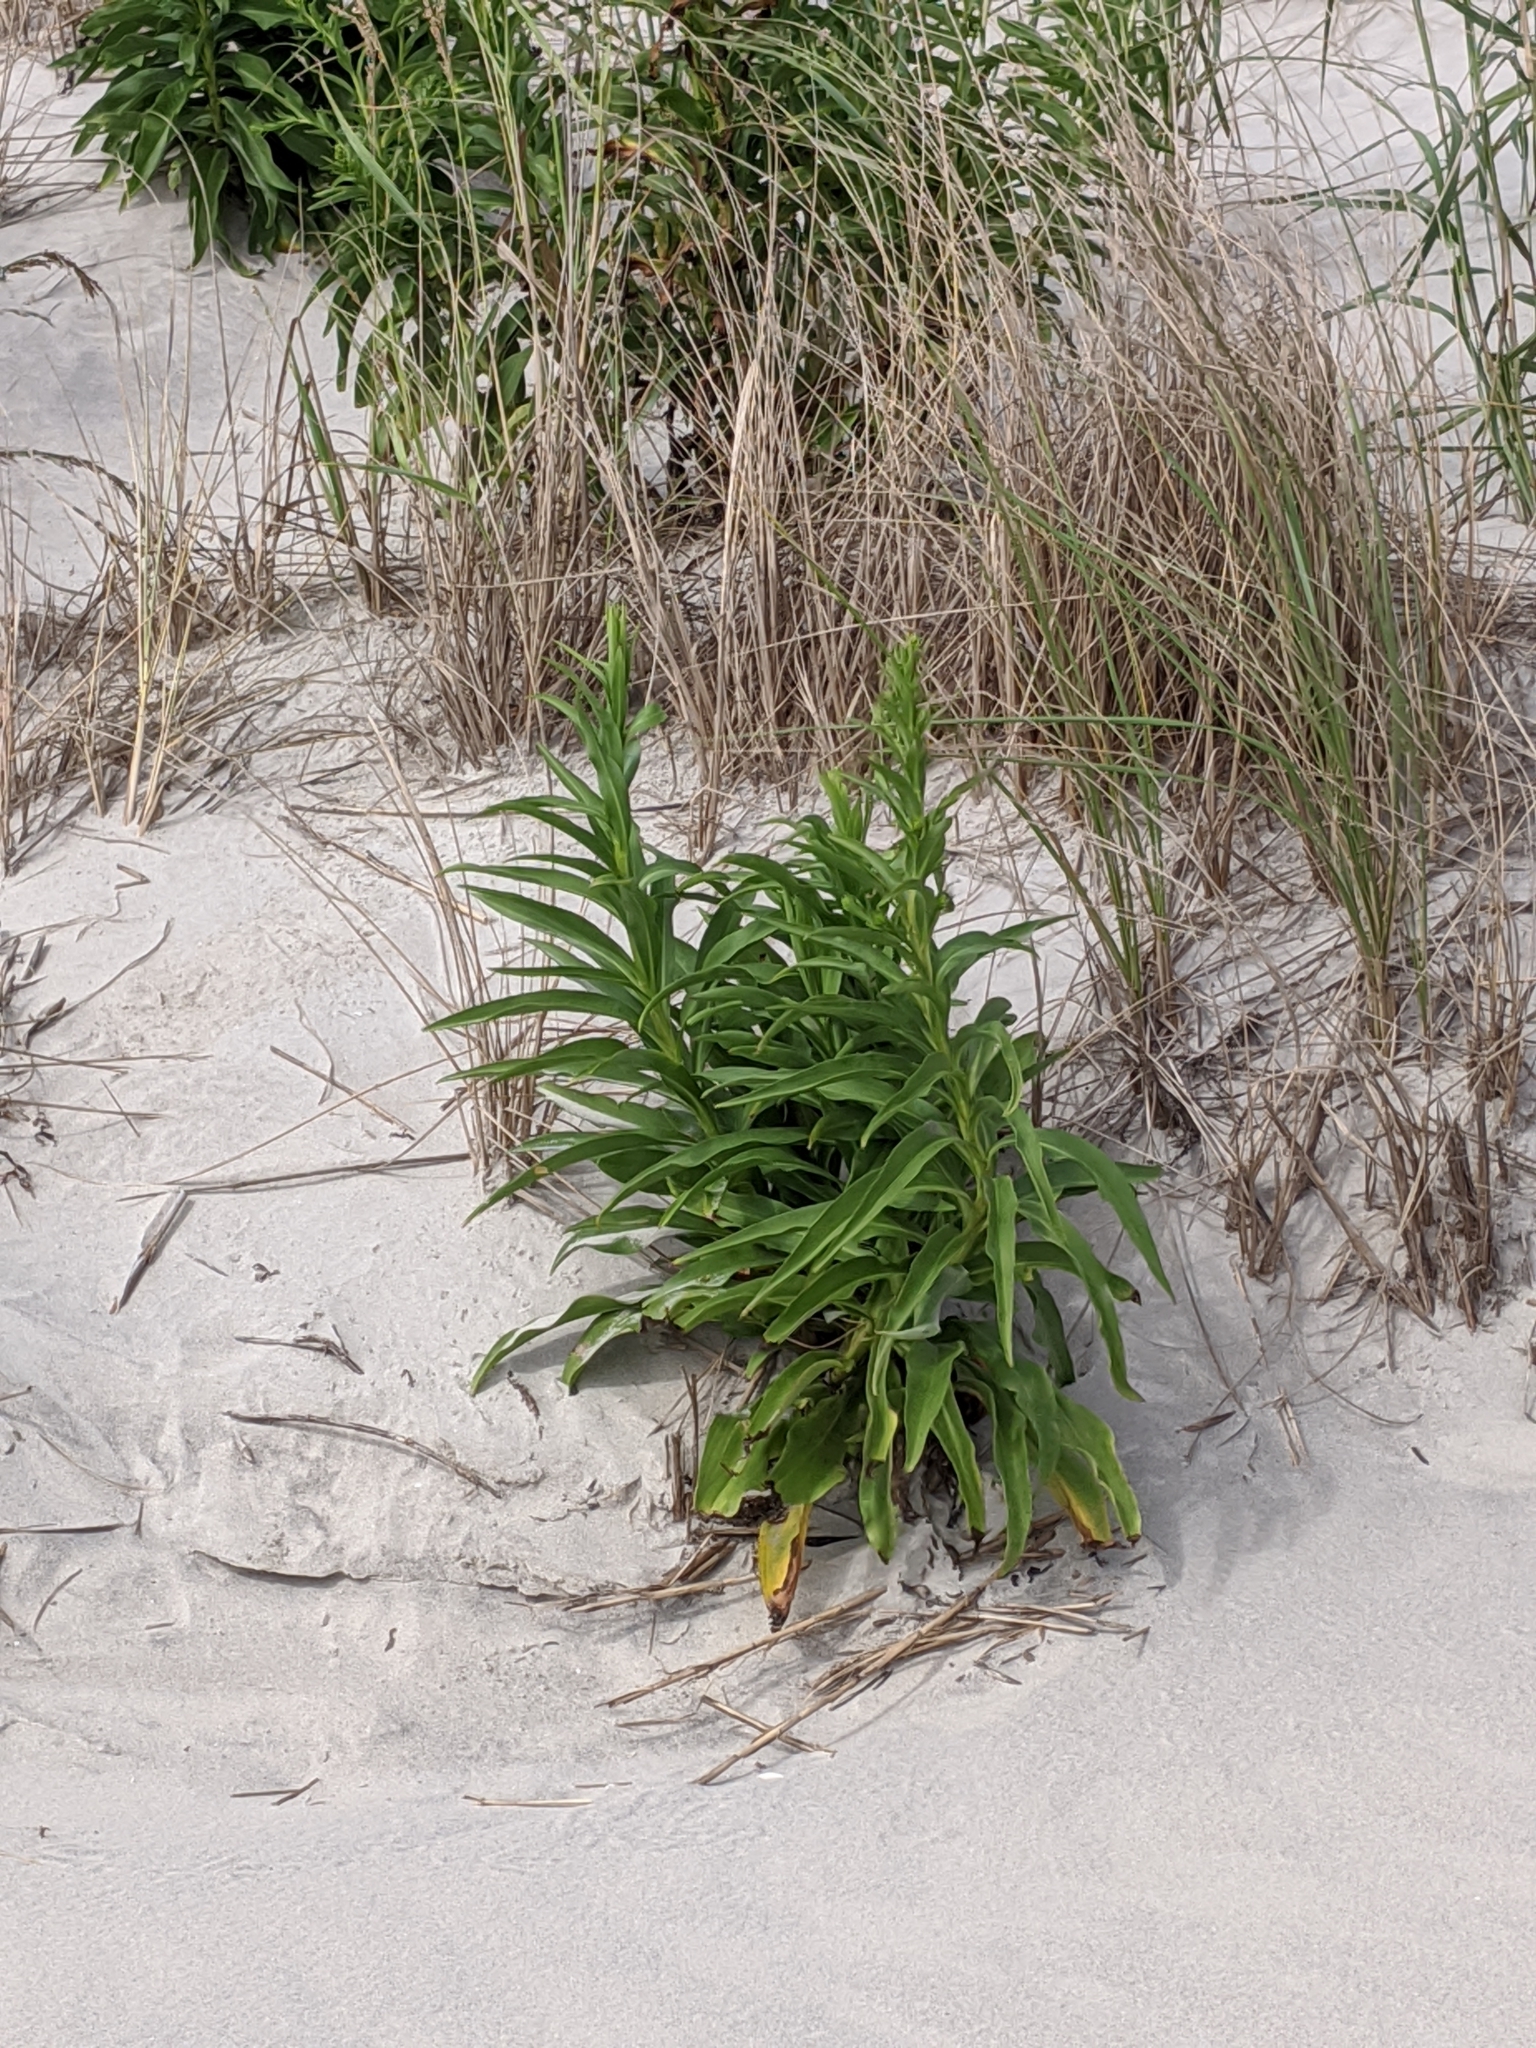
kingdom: Plantae
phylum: Tracheophyta
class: Magnoliopsida
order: Asterales
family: Asteraceae
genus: Solidago
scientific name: Solidago sempervirens
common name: Salt-marsh goldenrod
